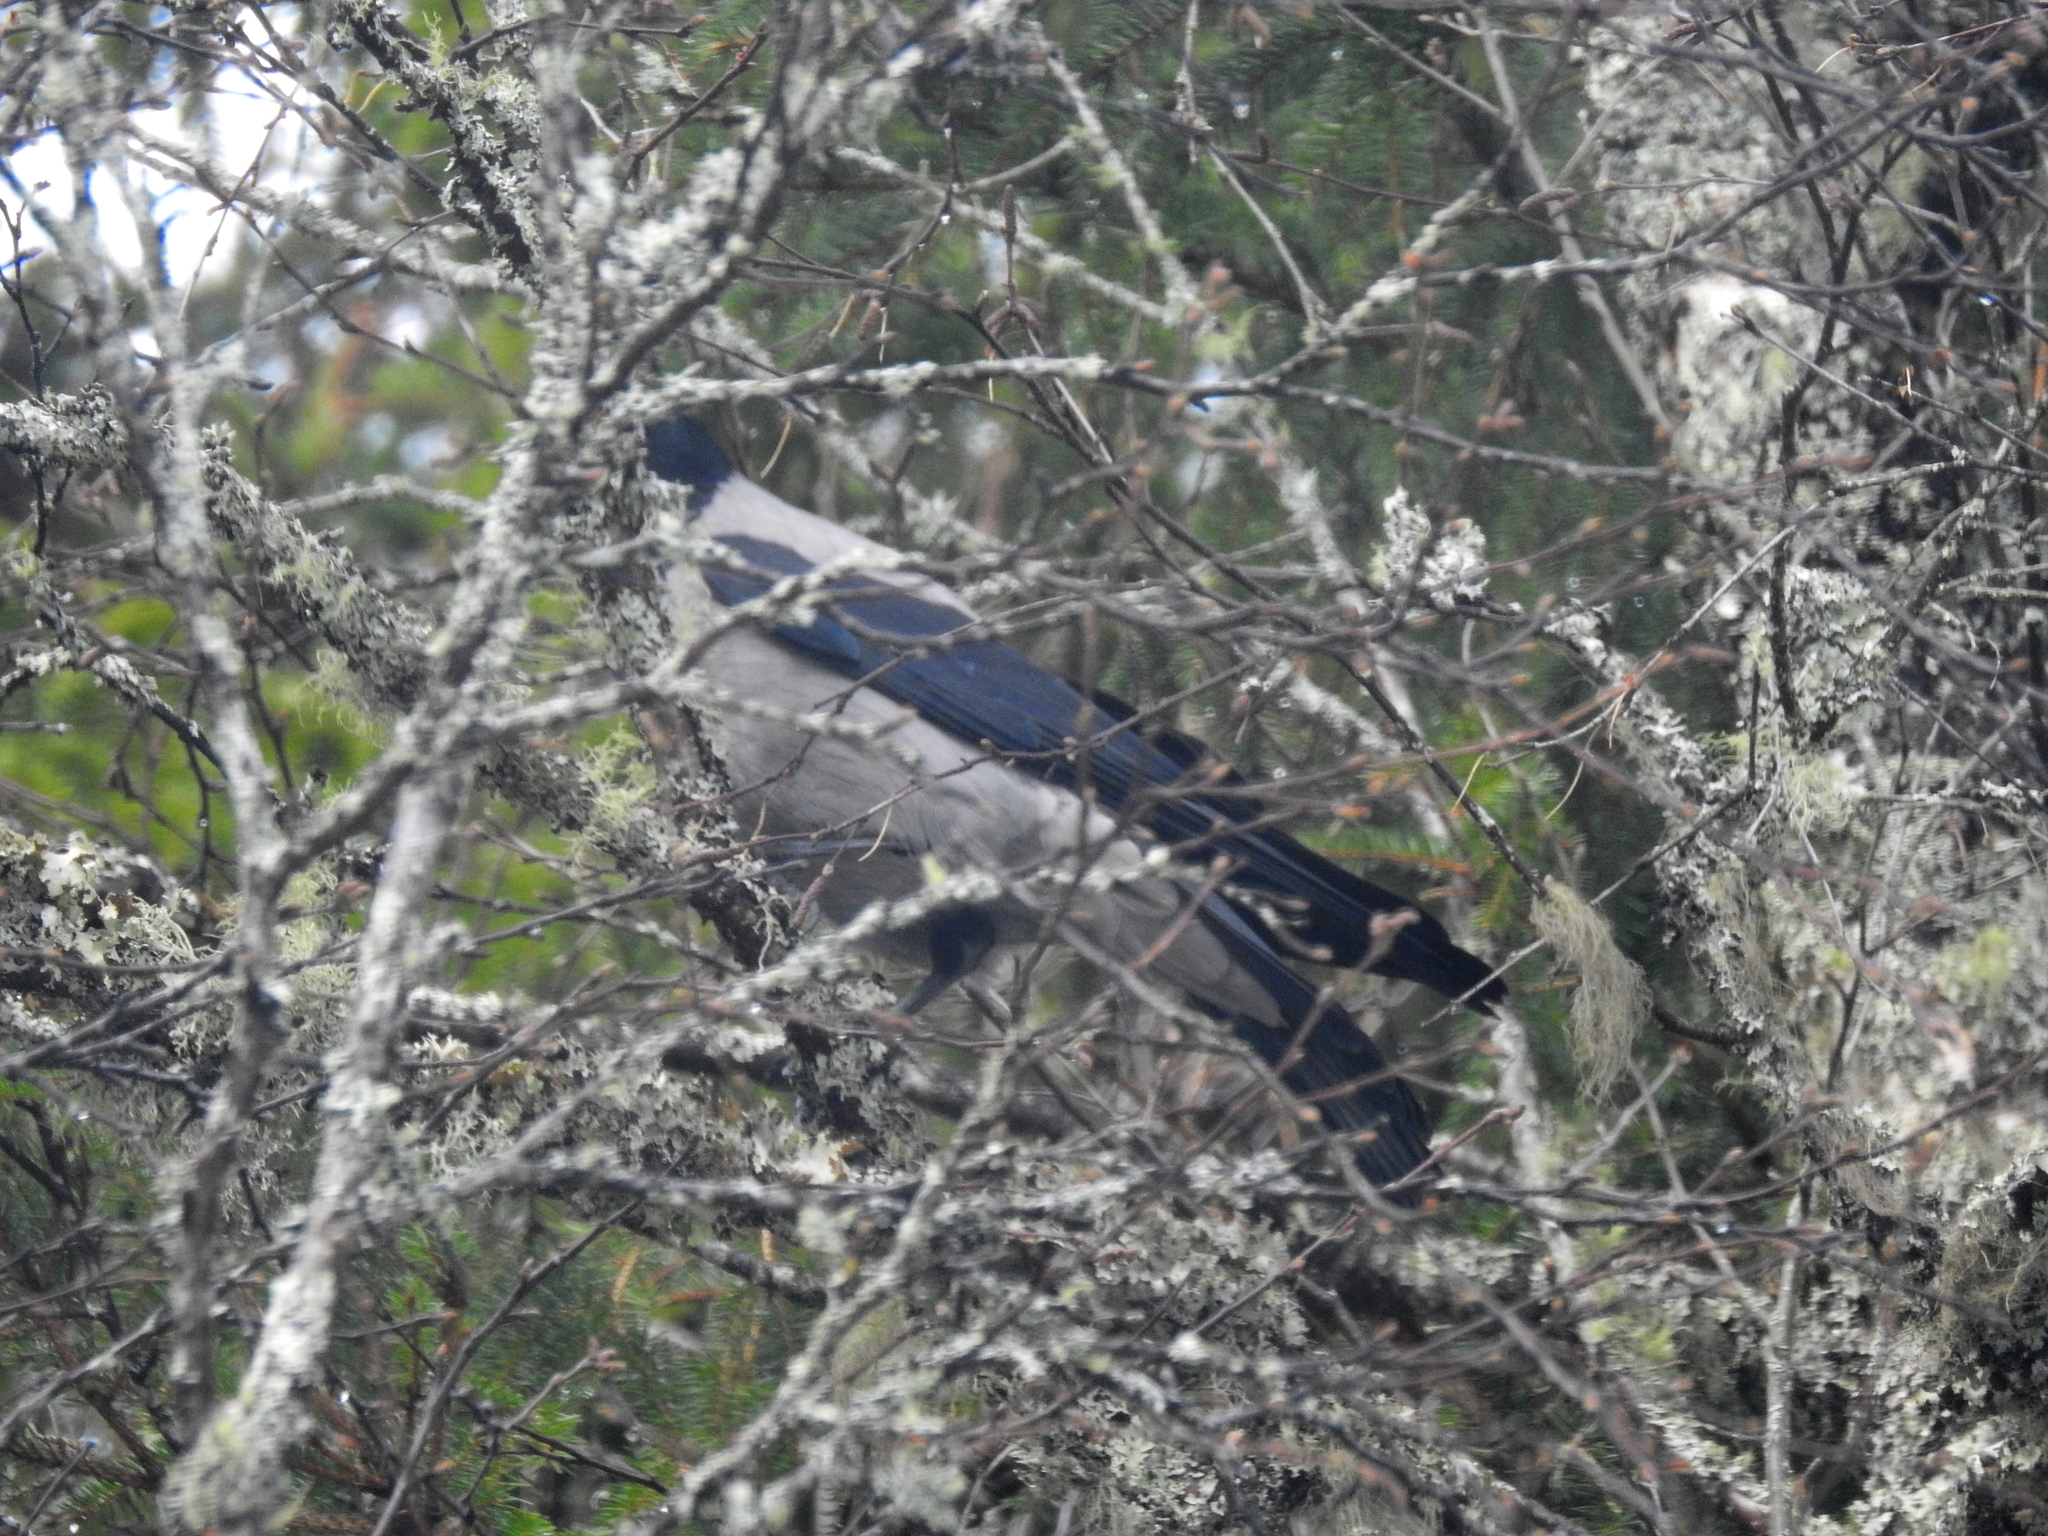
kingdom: Animalia
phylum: Chordata
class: Aves
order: Passeriformes
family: Corvidae
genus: Corvus
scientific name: Corvus cornix
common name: Hooded crow
